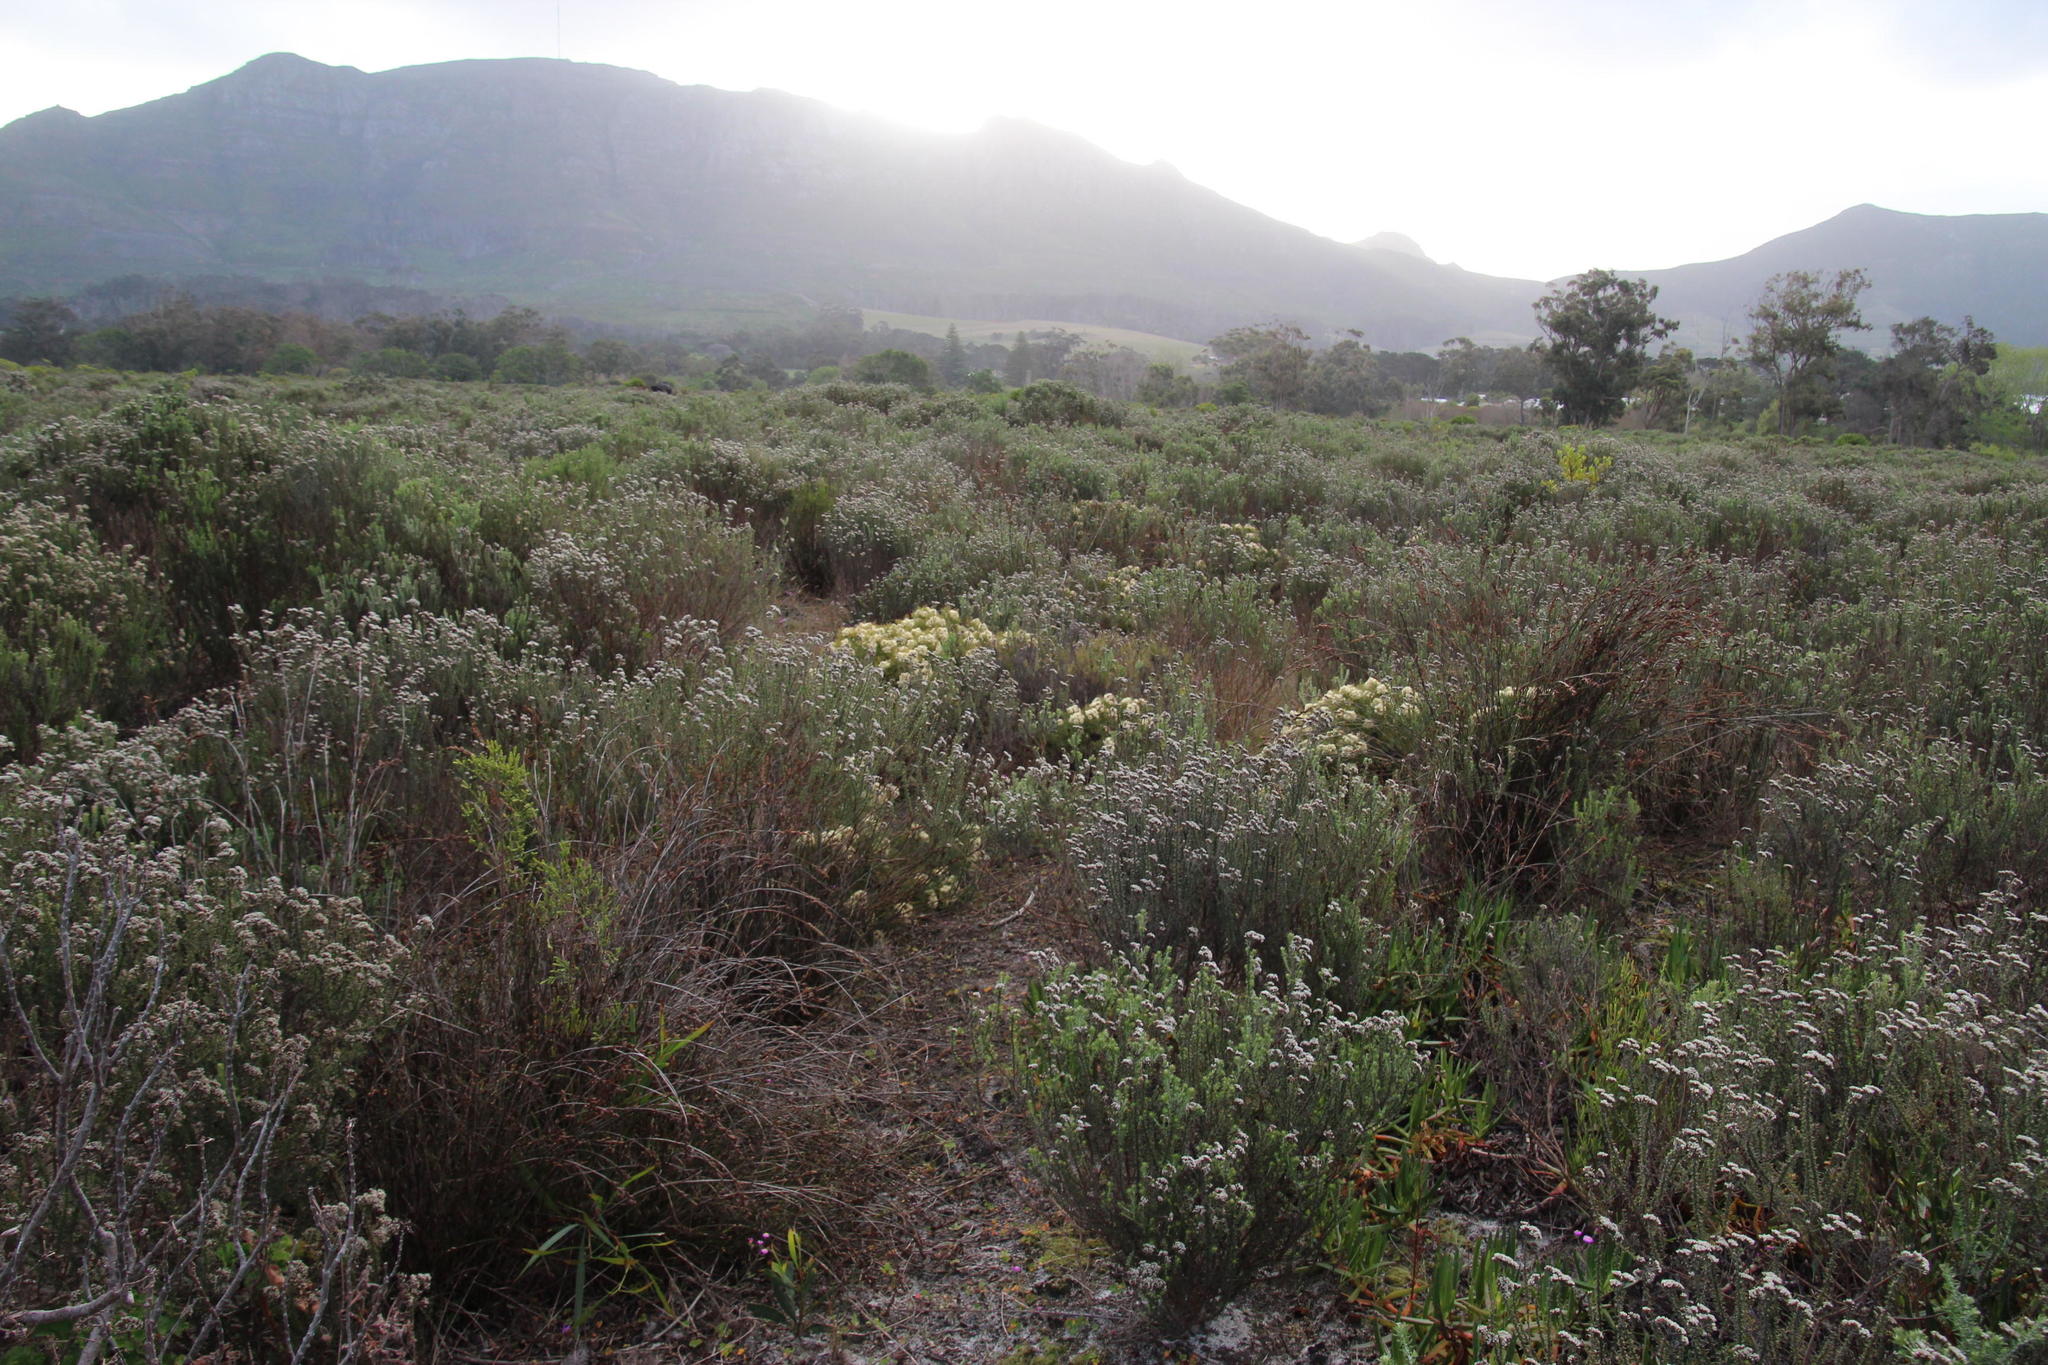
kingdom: Plantae
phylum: Tracheophyta
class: Magnoliopsida
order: Proteales
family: Proteaceae
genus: Serruria
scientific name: Serruria glomerata
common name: Cluster spiderhead
